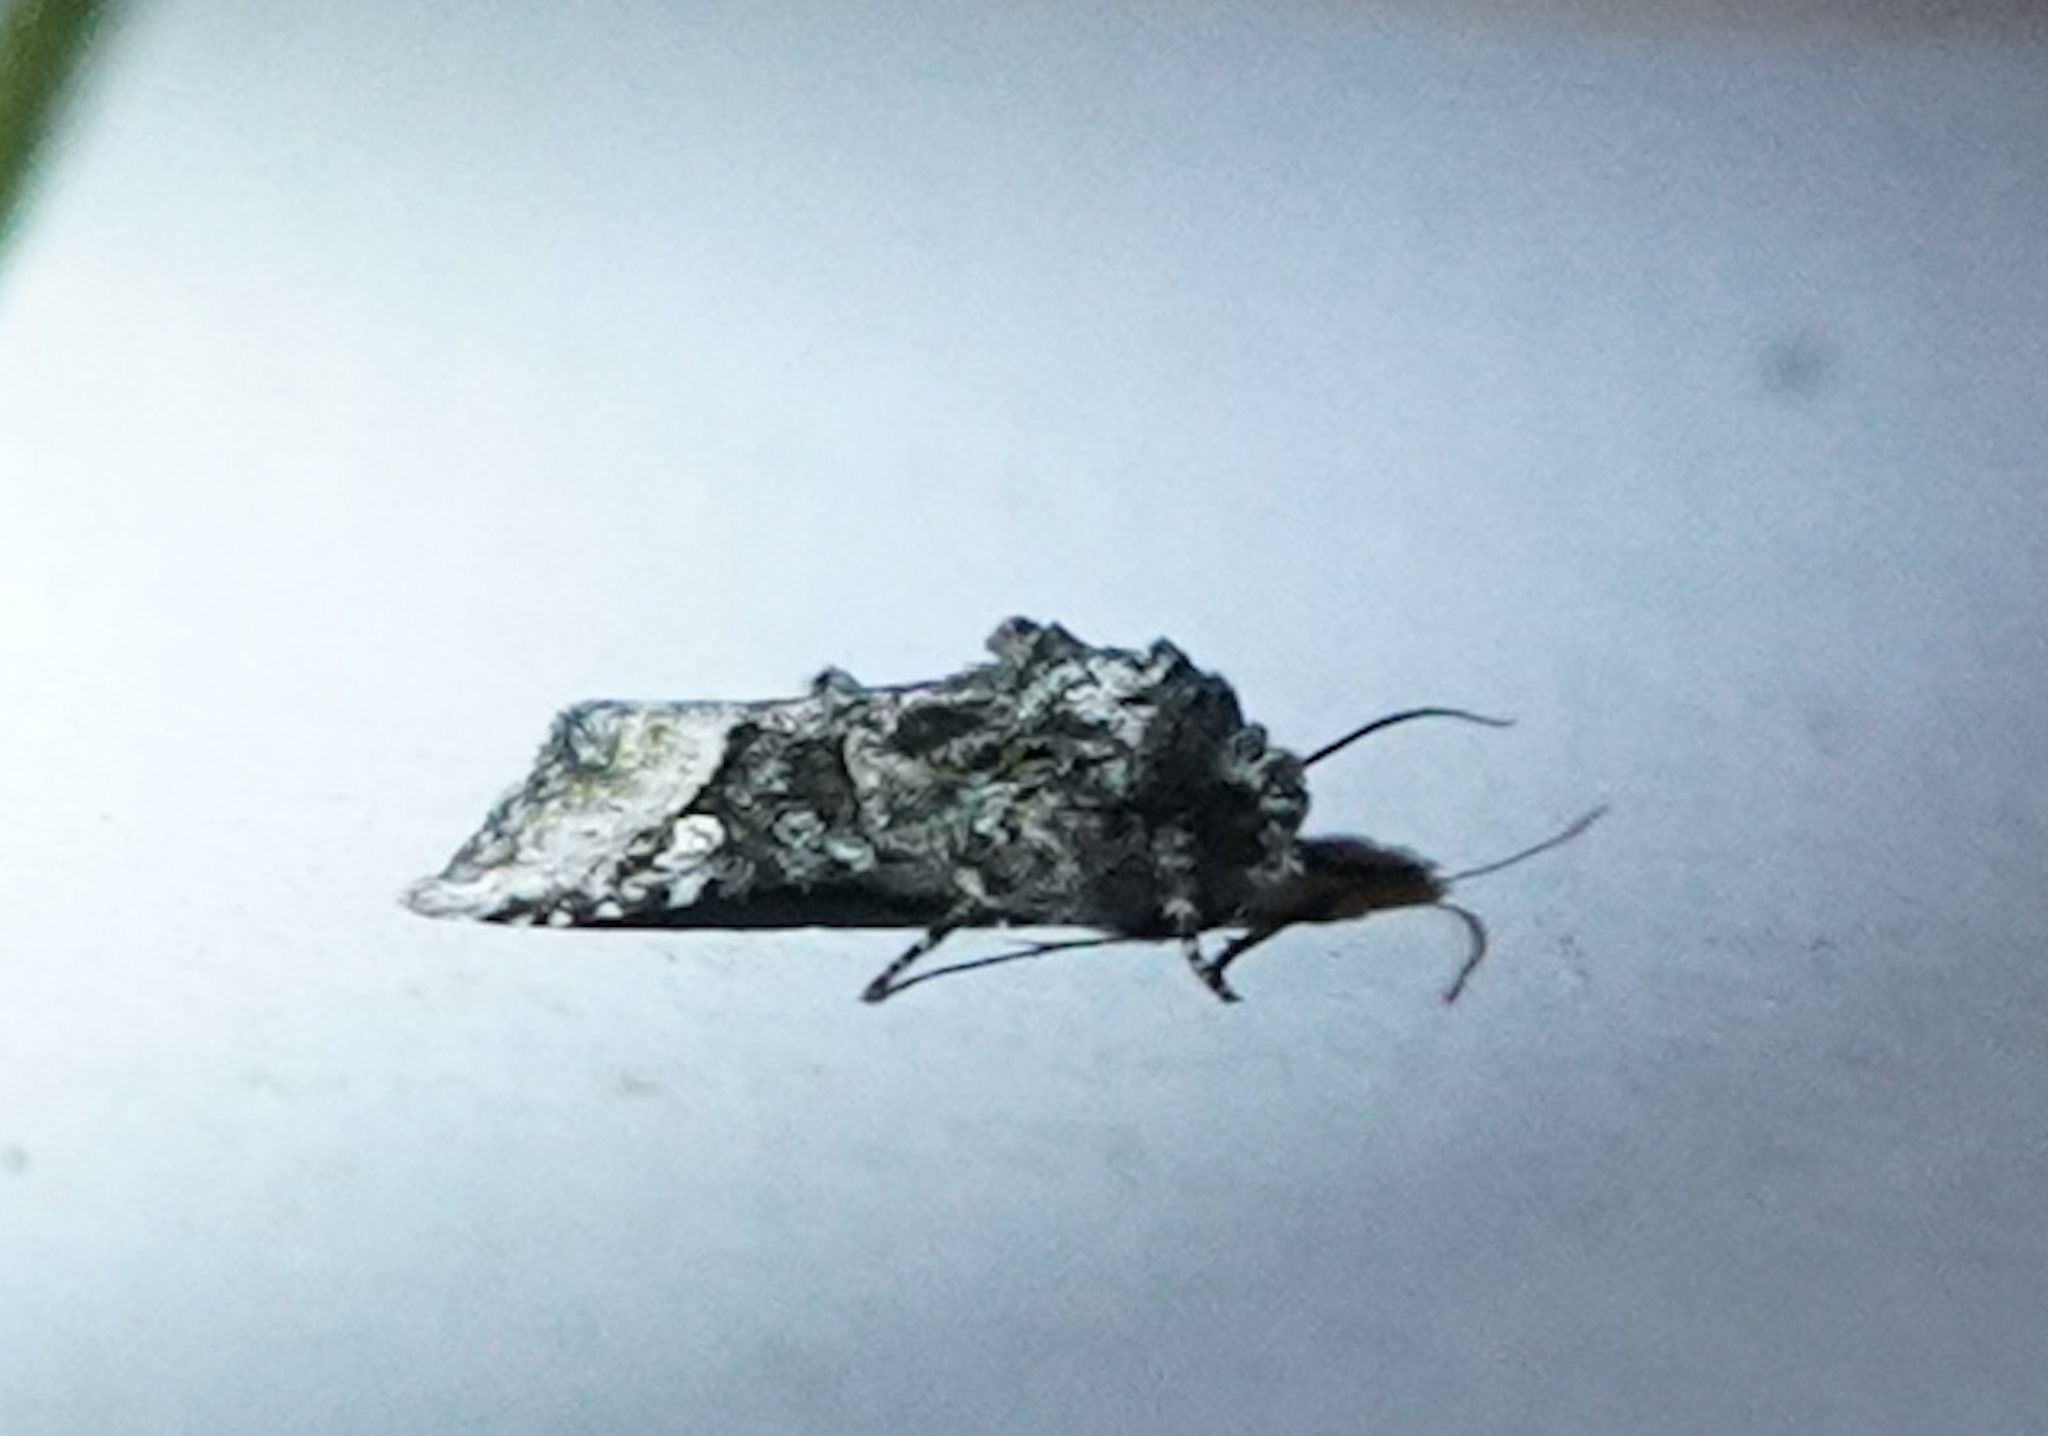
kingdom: Animalia
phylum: Arthropoda
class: Insecta
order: Lepidoptera
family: Noctuidae
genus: Lacinipolia
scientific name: Lacinipolia olivacea
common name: Olive arches moth
